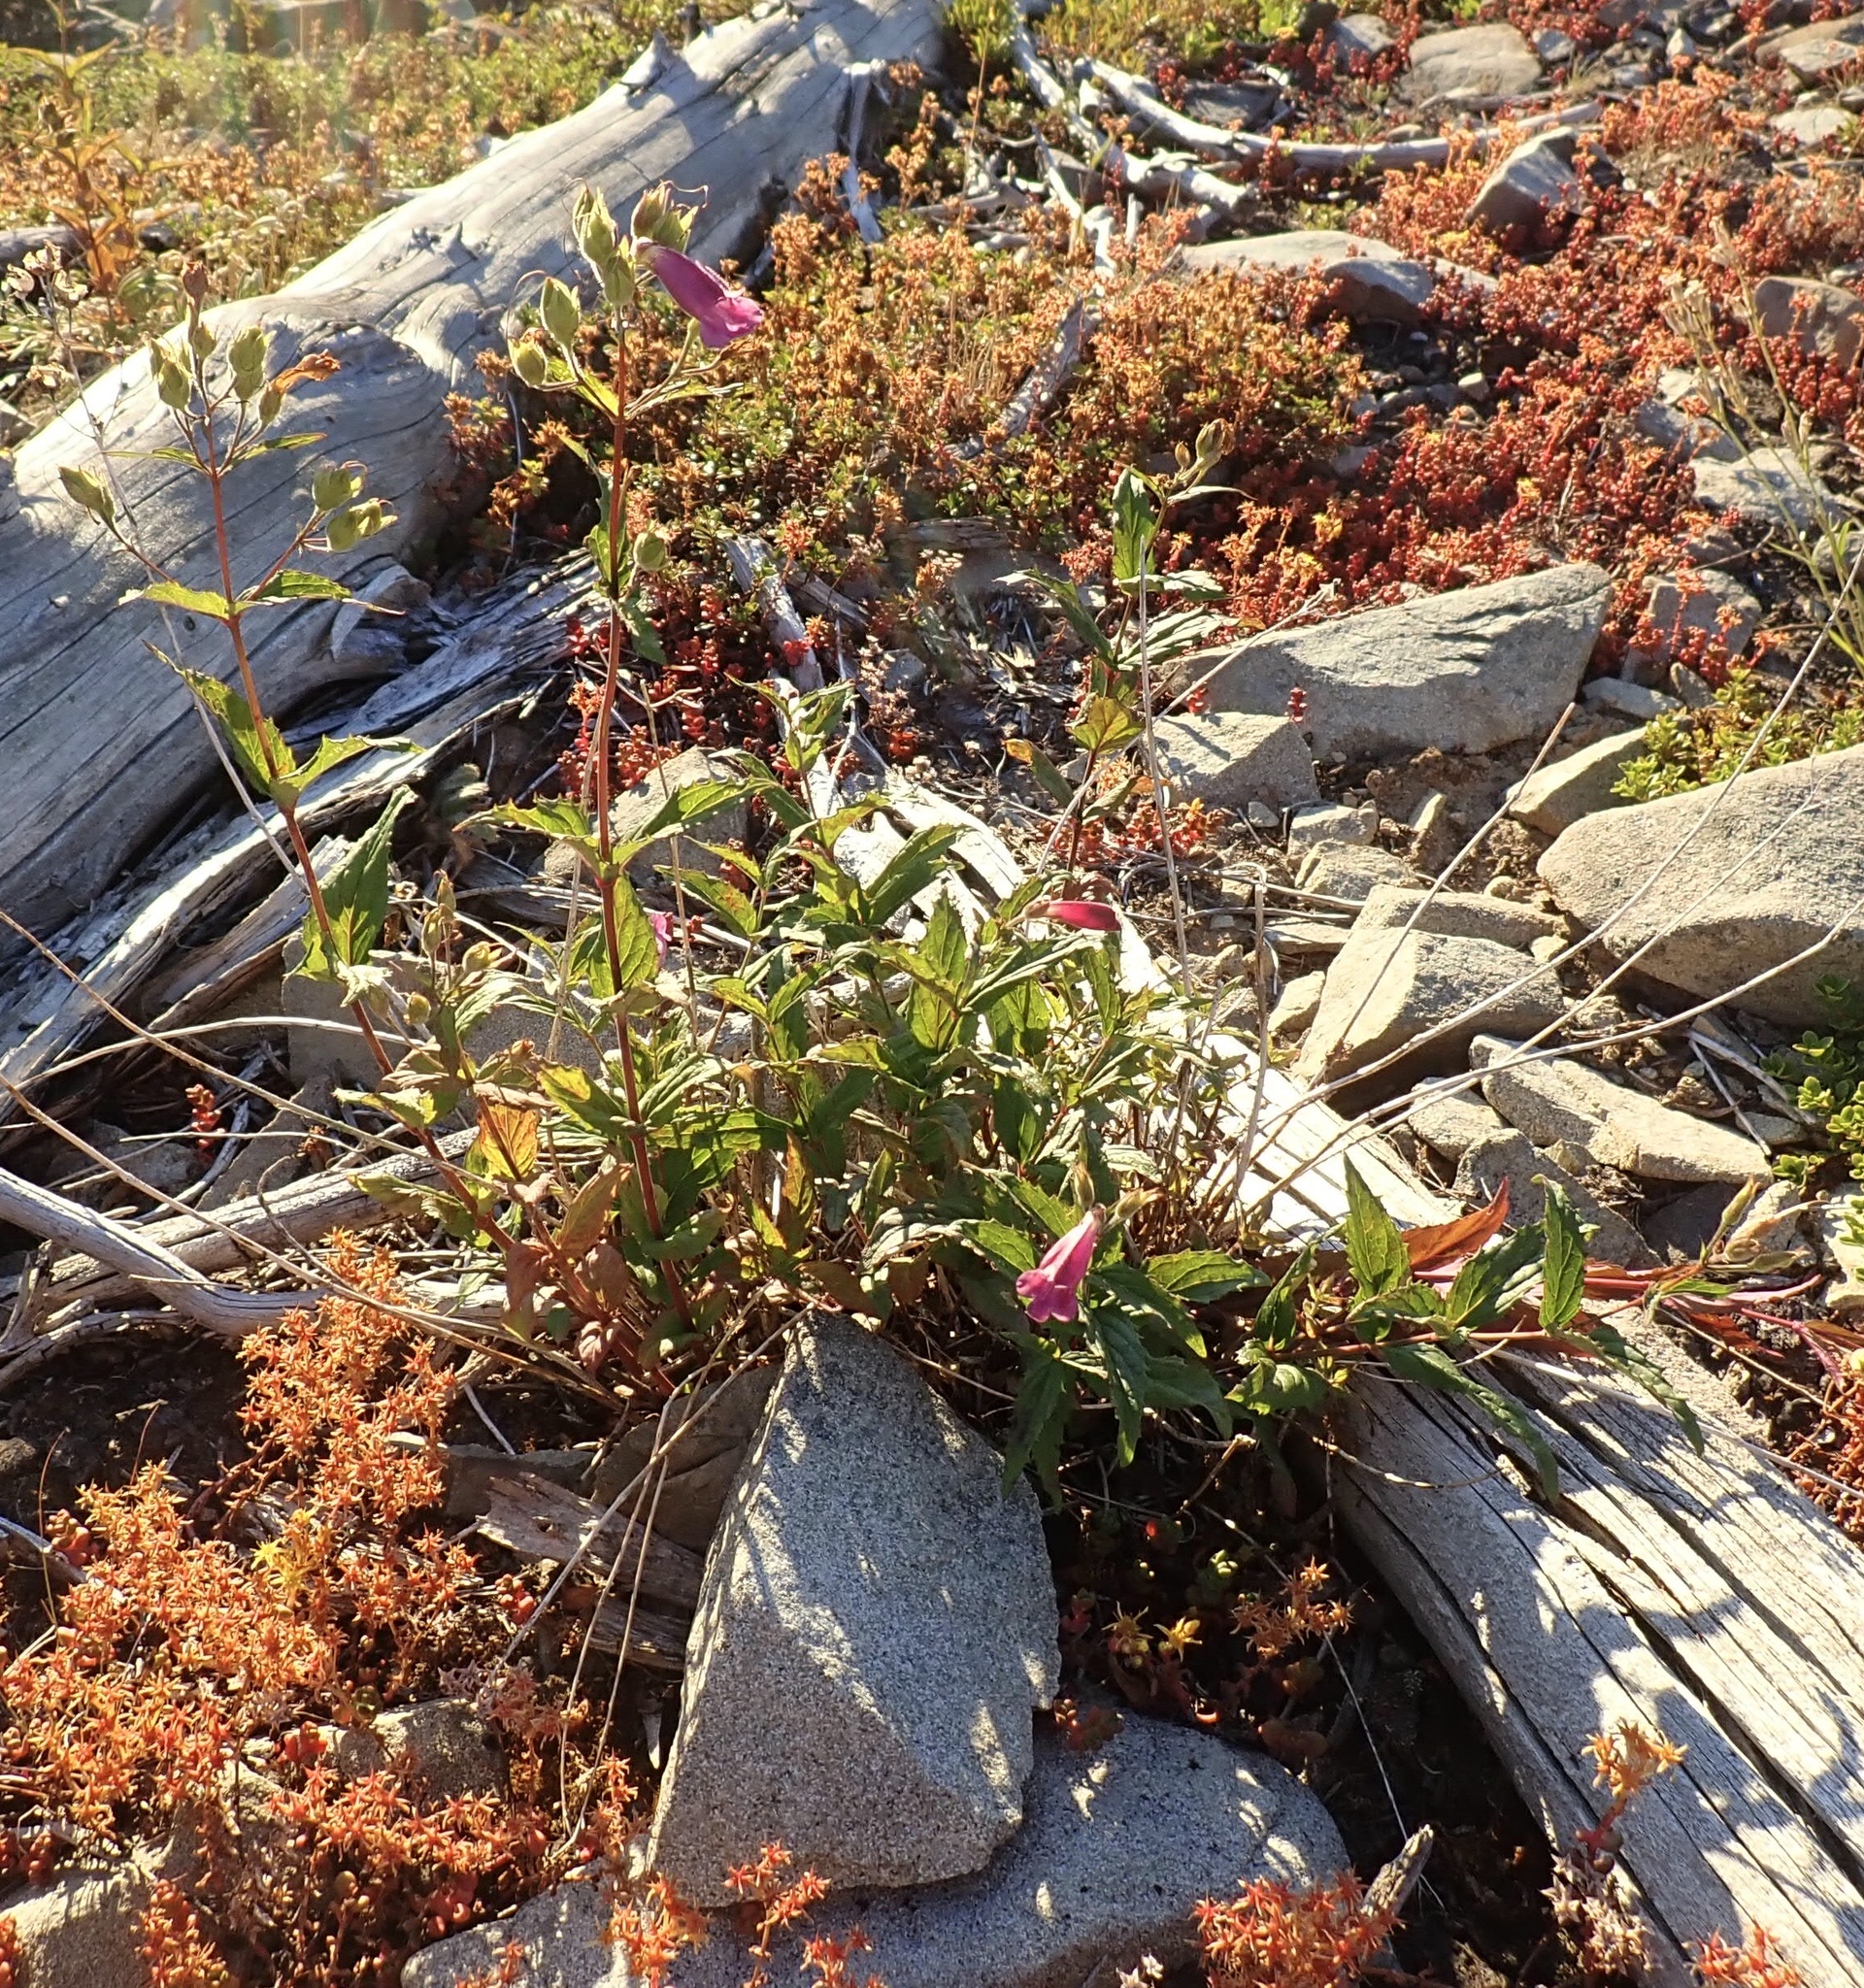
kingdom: Plantae
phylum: Tracheophyta
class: Magnoliopsida
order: Lamiales
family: Plantaginaceae
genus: Nothochelone
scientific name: Nothochelone nemorosa
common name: Woodland beardtongue
